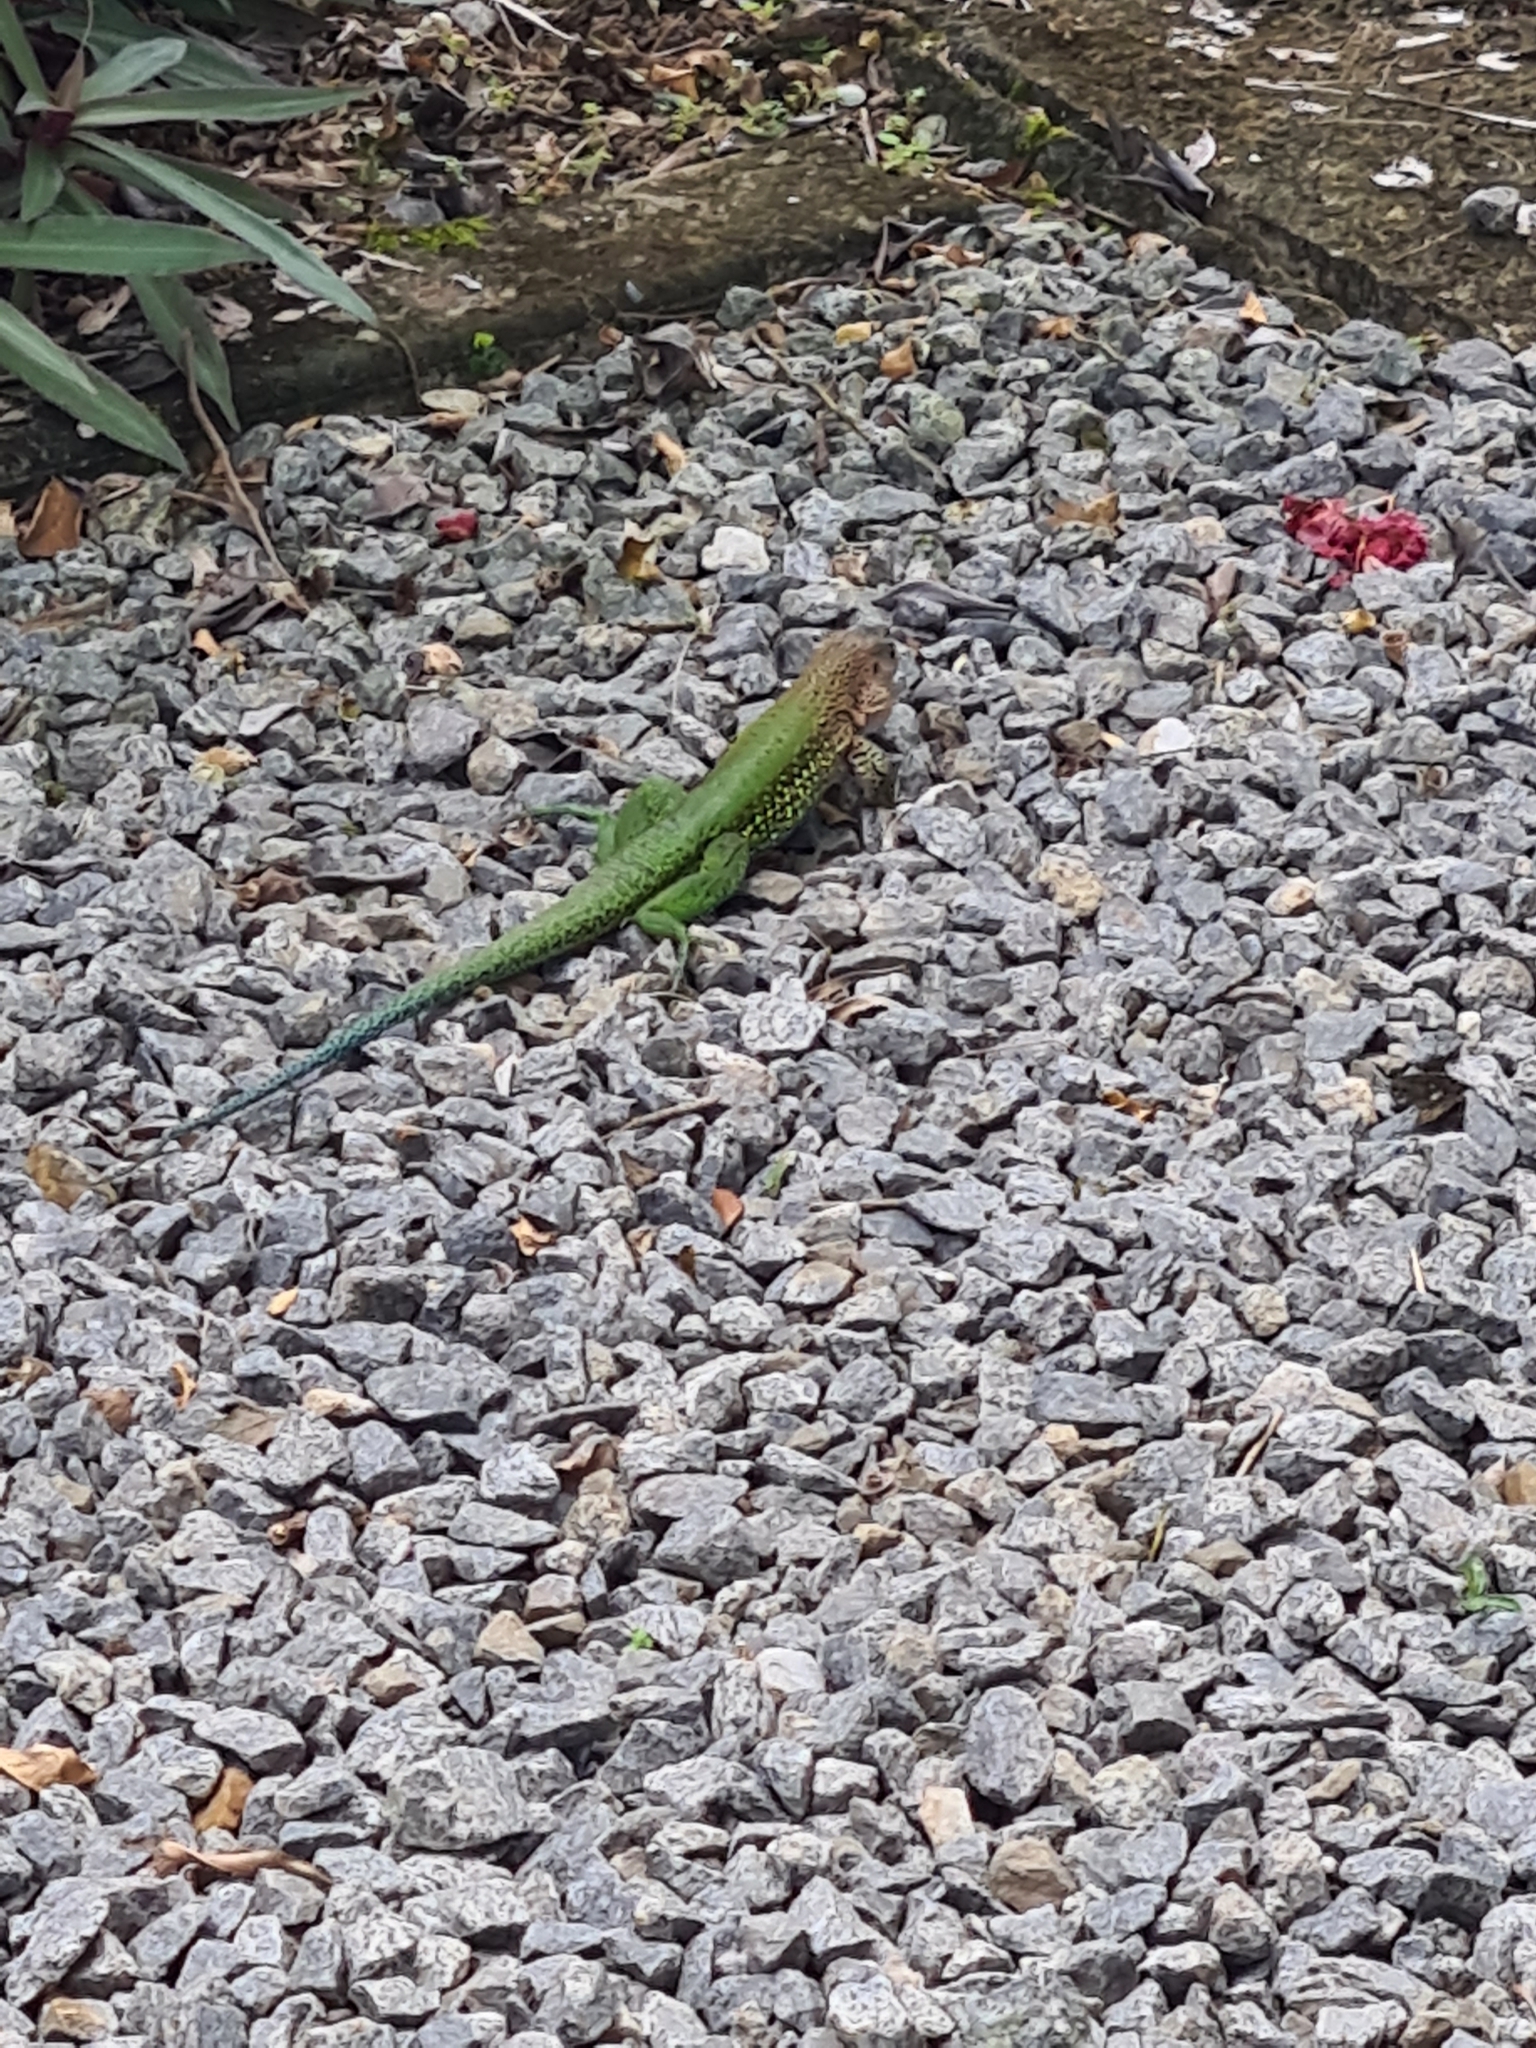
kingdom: Animalia
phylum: Chordata
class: Squamata
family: Teiidae
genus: Ameiva
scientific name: Ameiva ameiva
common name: Giant ameiva
